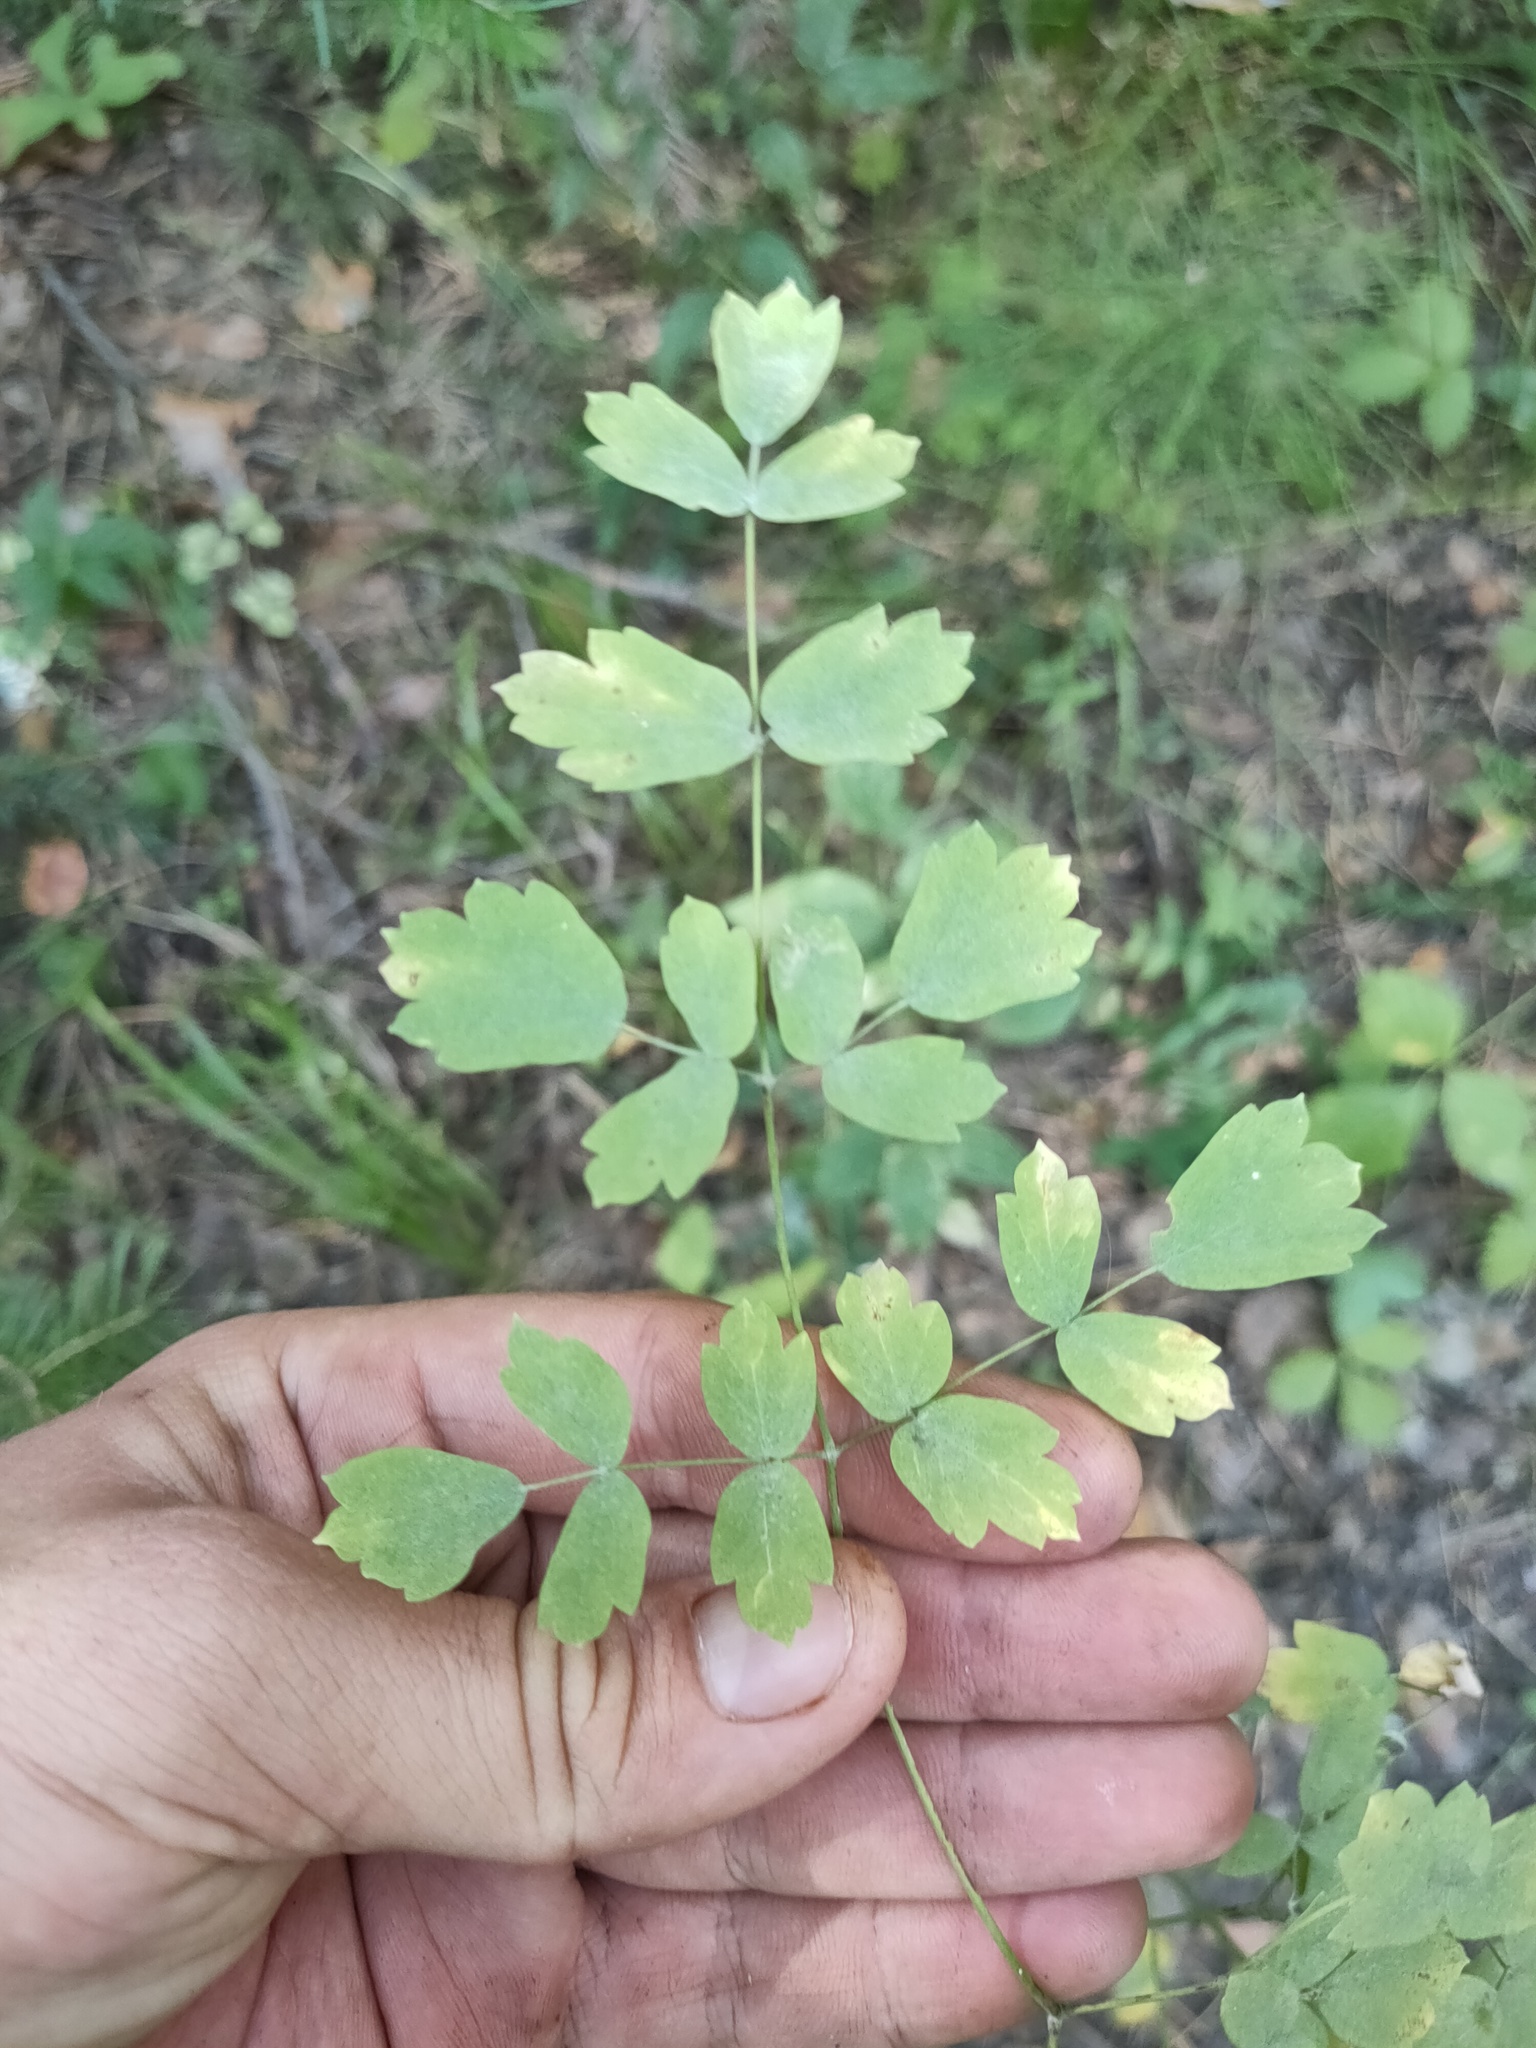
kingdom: Plantae
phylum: Tracheophyta
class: Magnoliopsida
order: Ranunculales
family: Ranunculaceae
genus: Thalictrum
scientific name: Thalictrum minus
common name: Lesser meadow-rue
